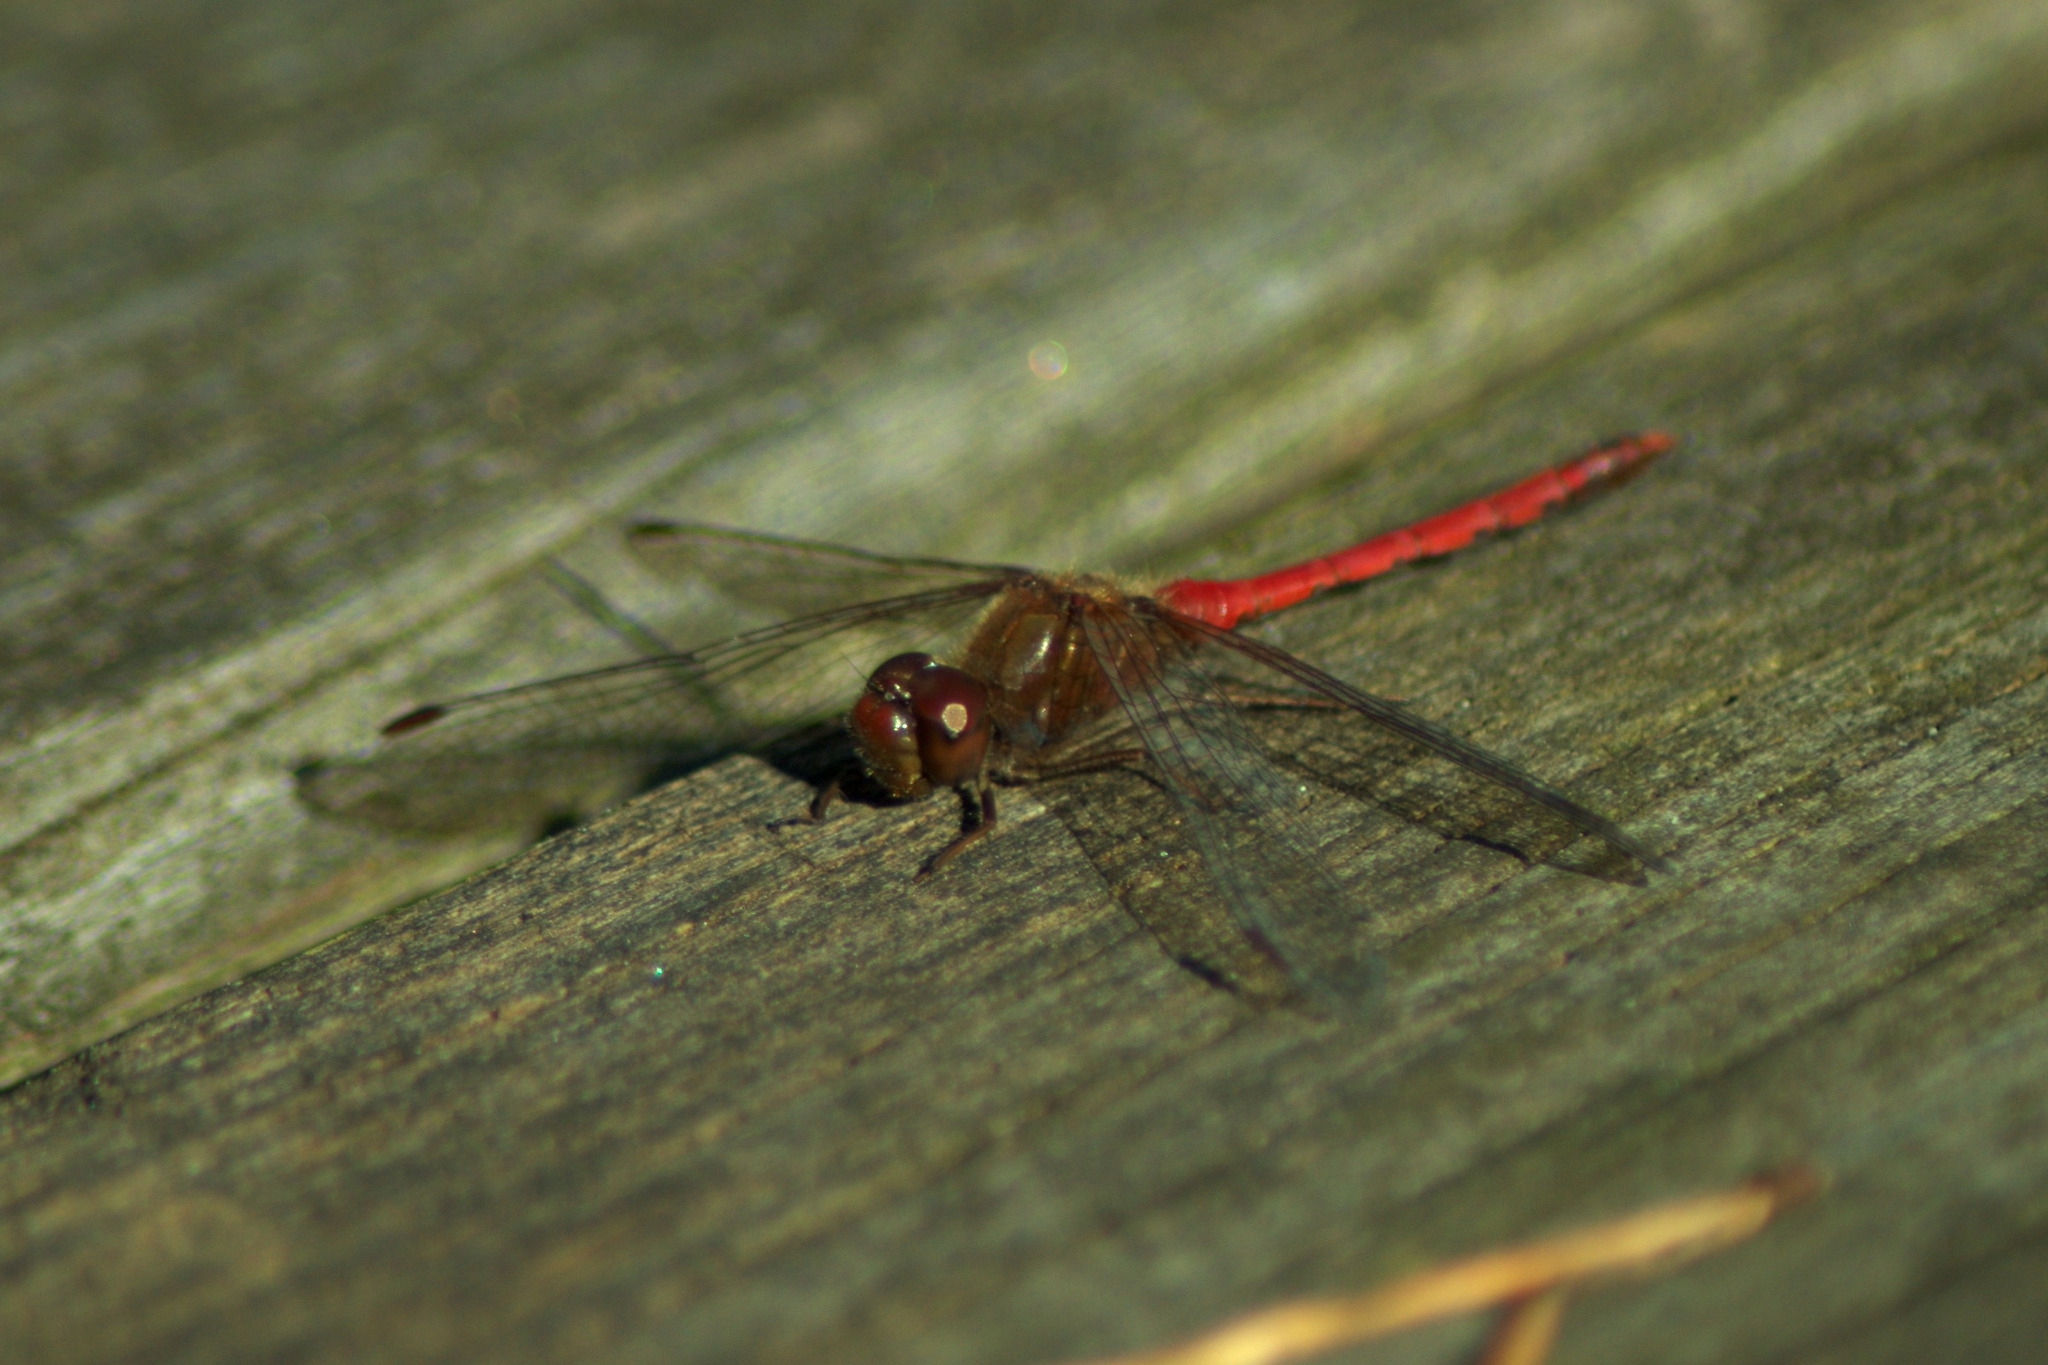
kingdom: Animalia
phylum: Arthropoda
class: Insecta
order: Odonata
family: Libellulidae
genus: Sympetrum
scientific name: Sympetrum vicinum
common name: Autumn meadowhawk
